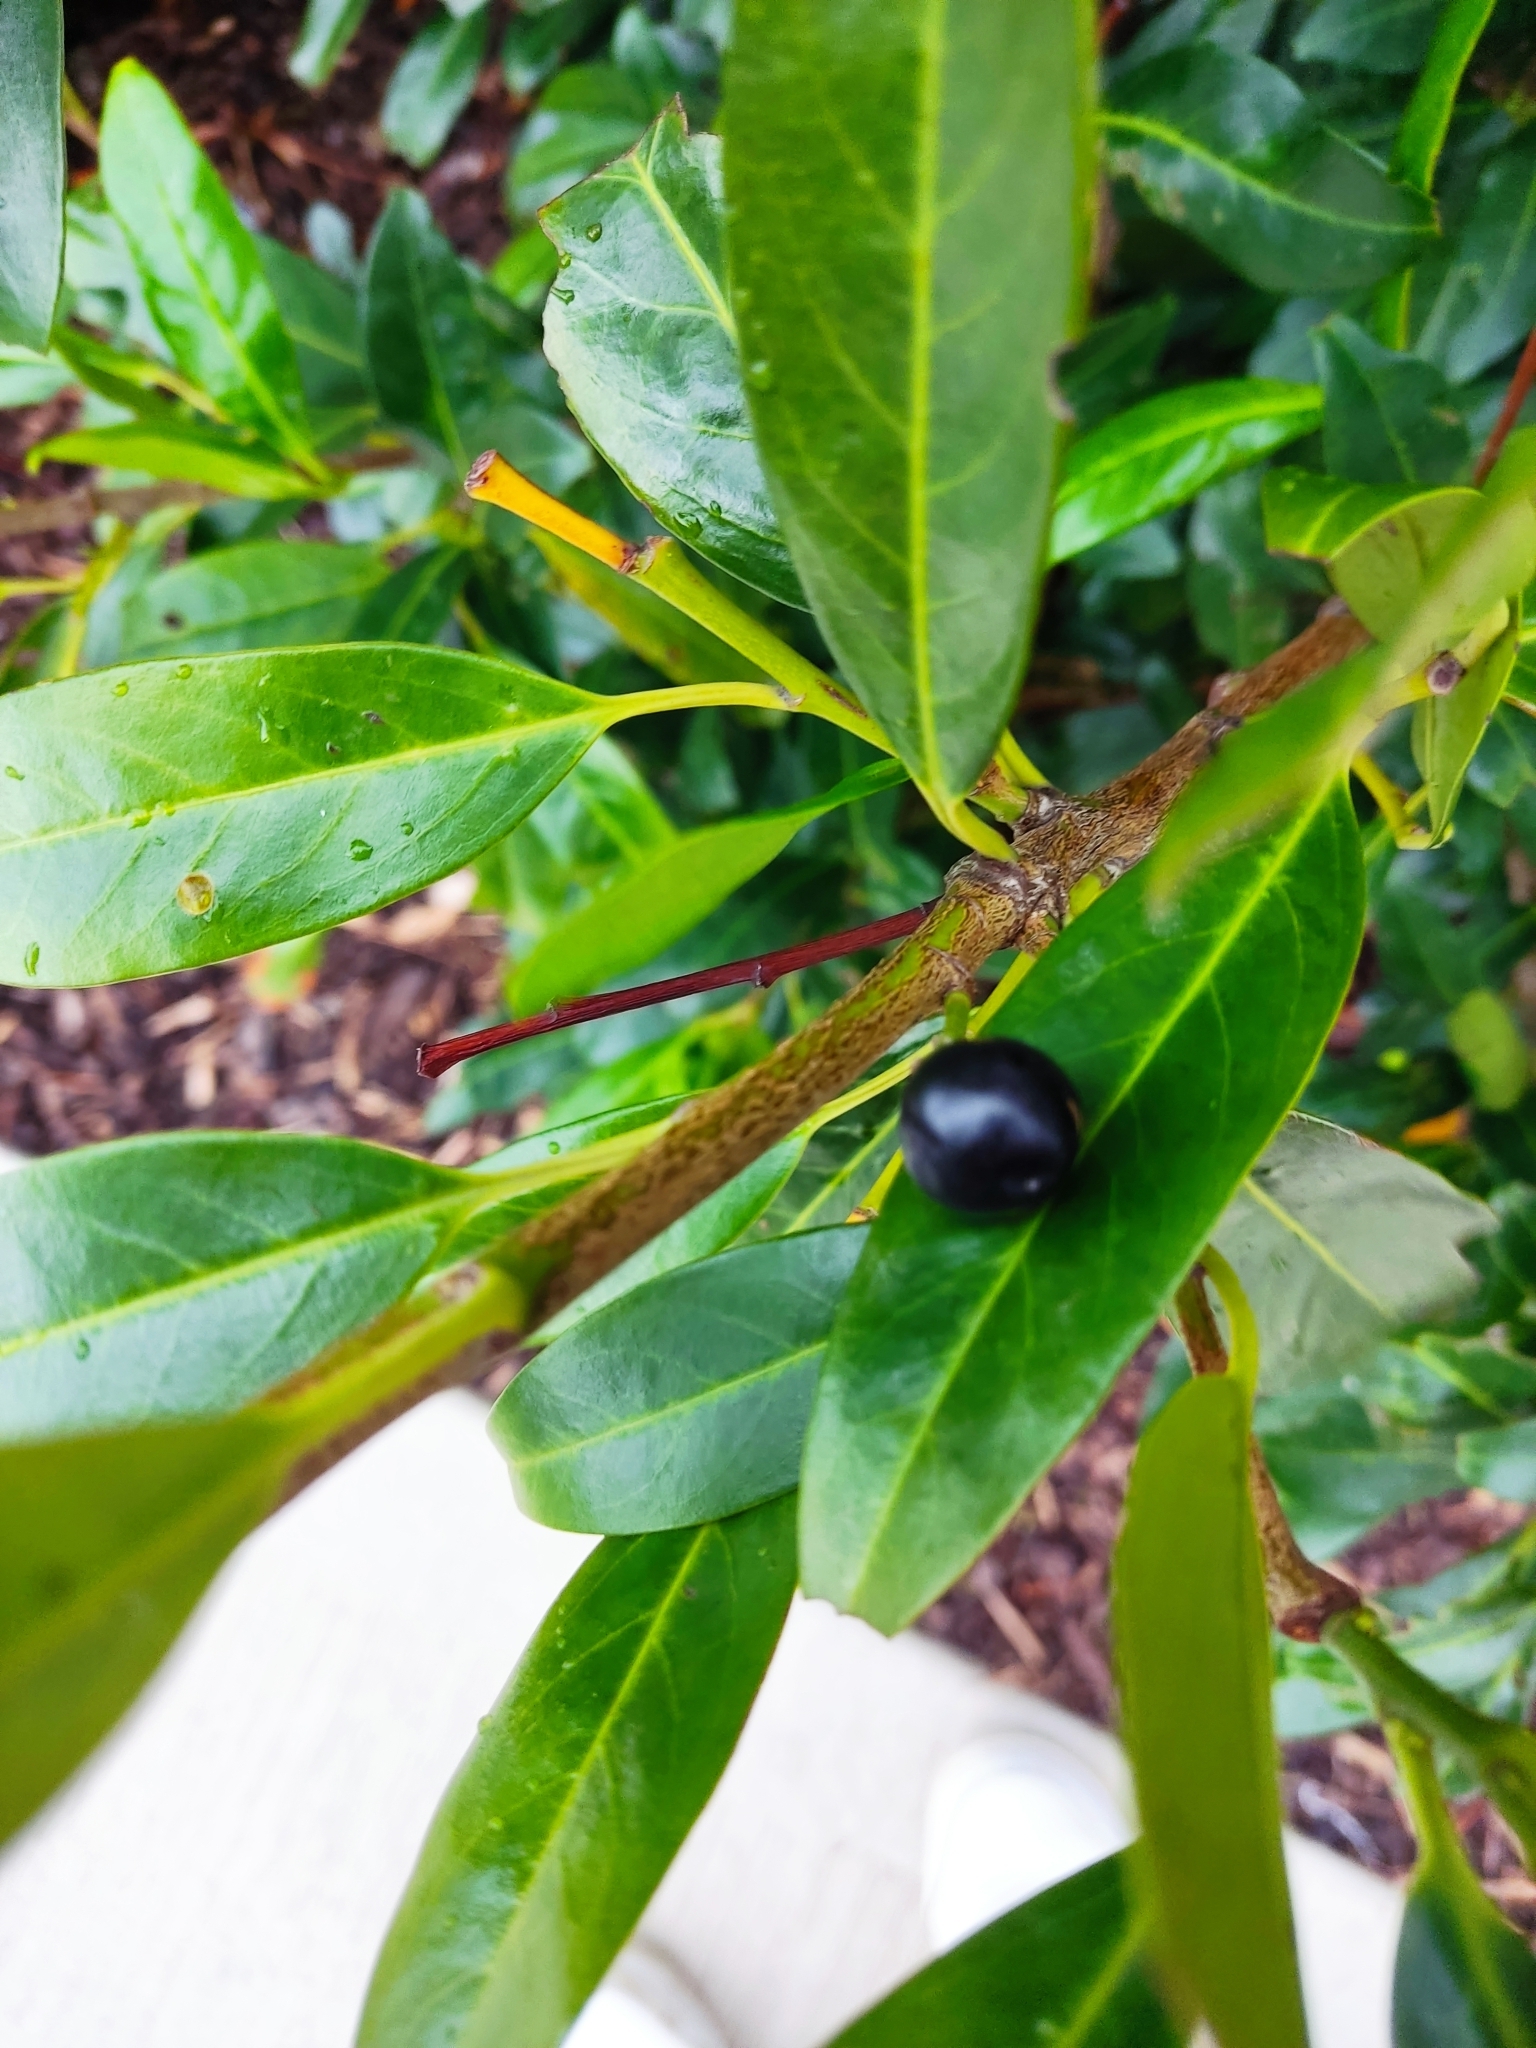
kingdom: Plantae
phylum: Tracheophyta
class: Magnoliopsida
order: Rosales
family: Rosaceae
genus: Prunus
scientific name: Prunus laurocerasus
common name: Cherry laurel
